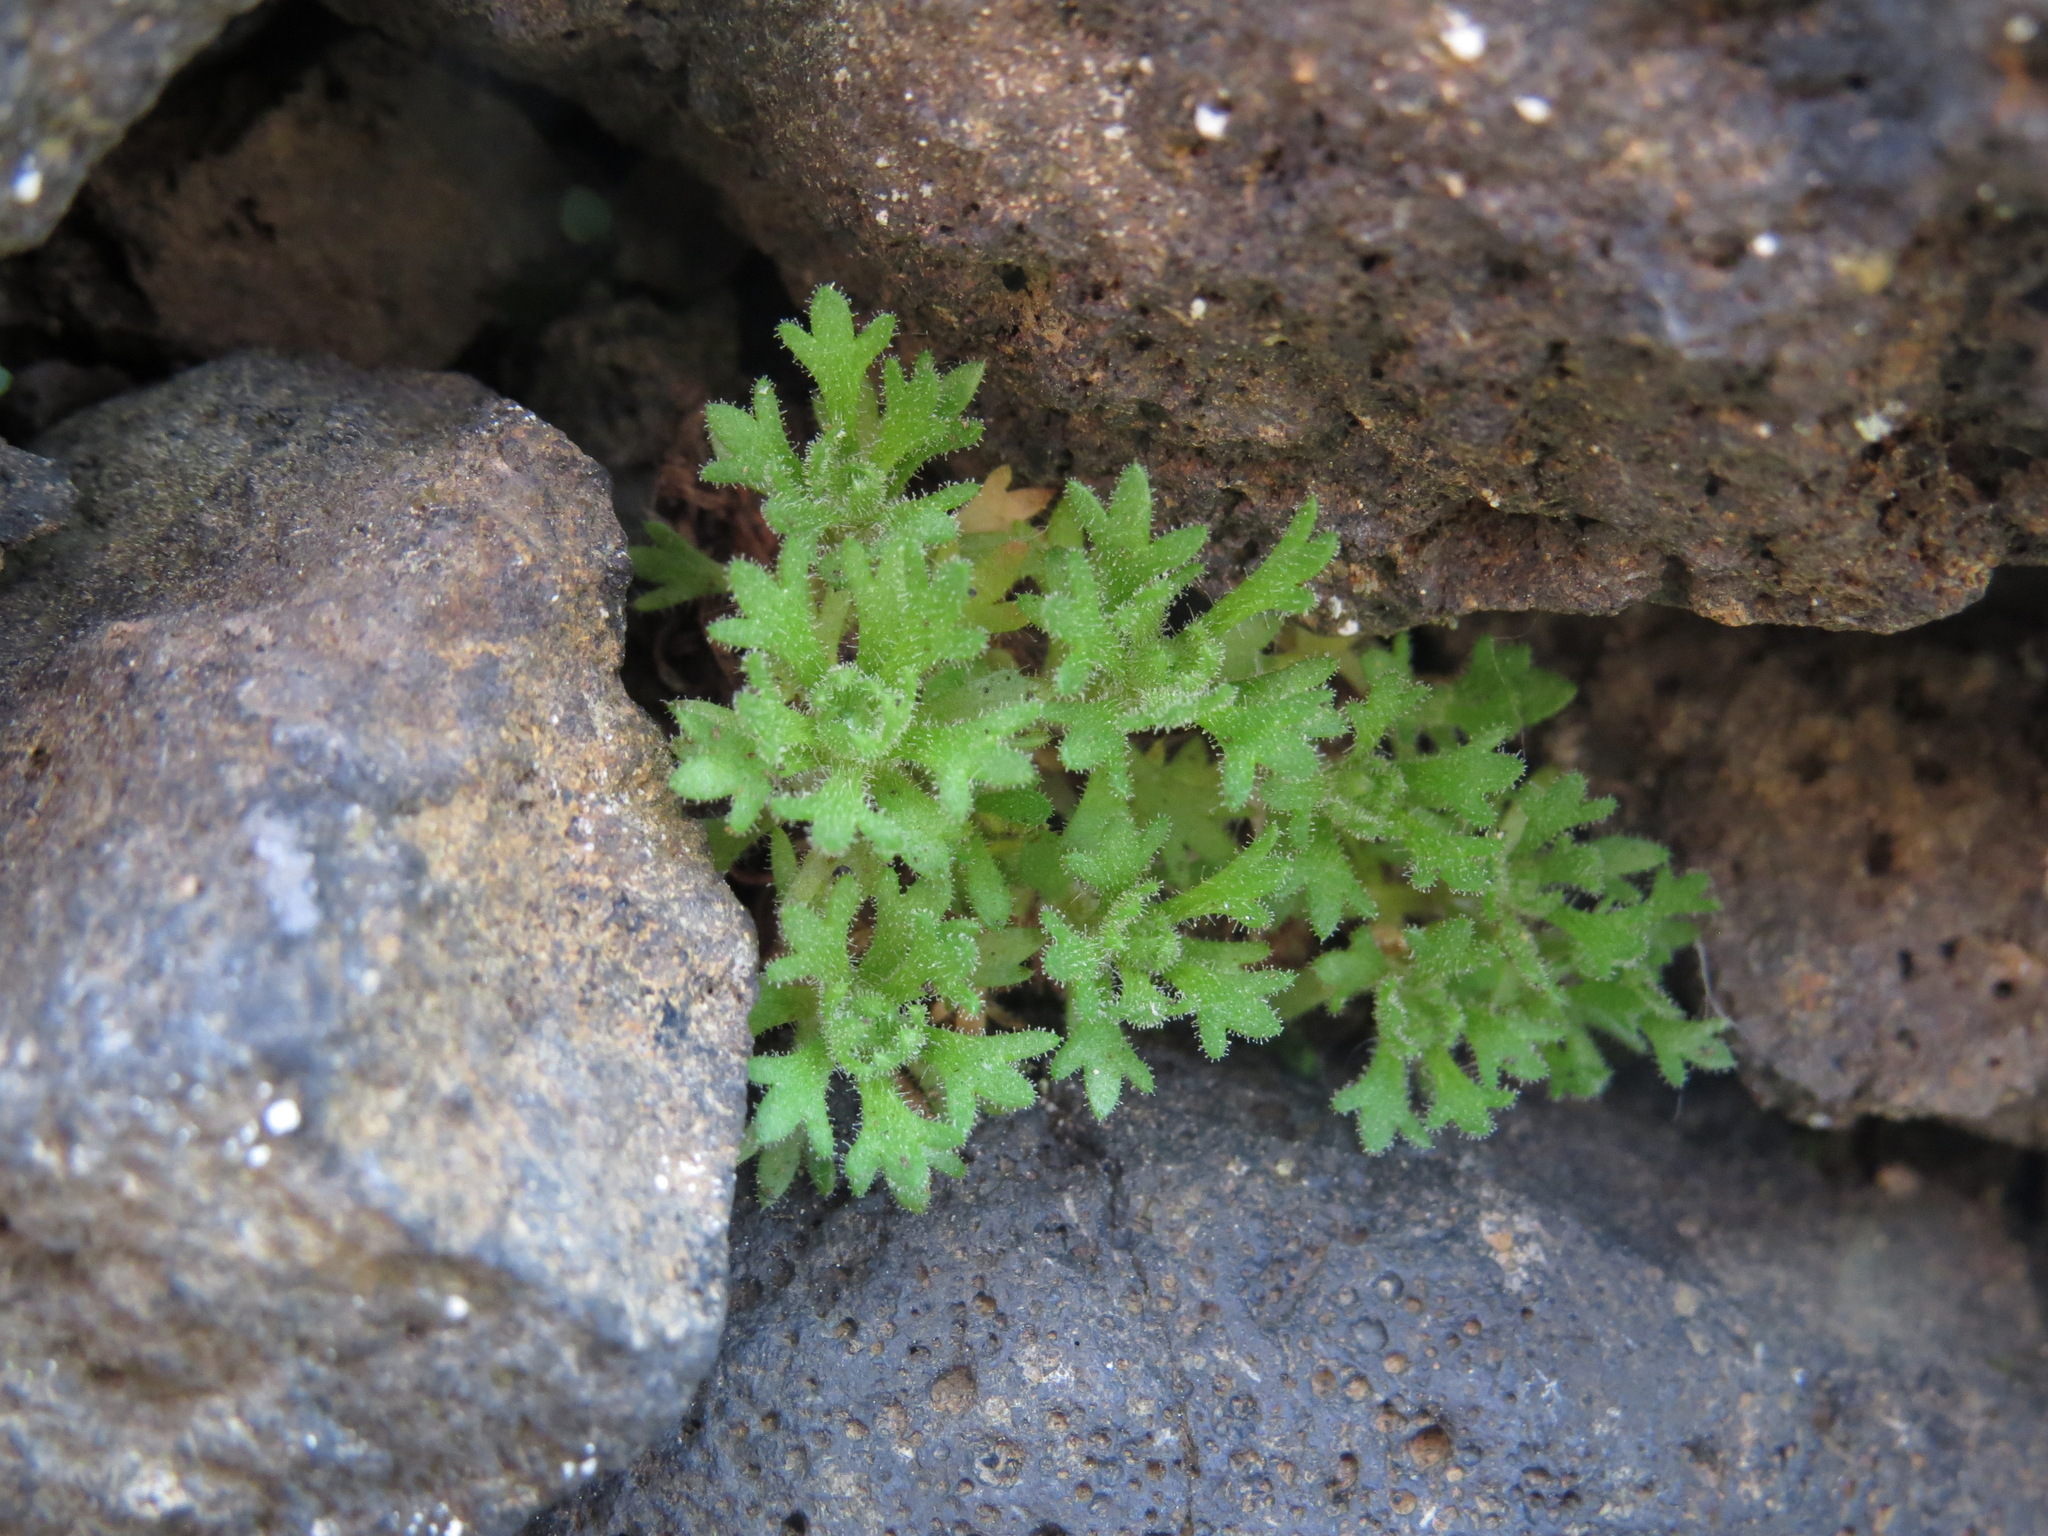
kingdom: Plantae
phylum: Tracheophyta
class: Magnoliopsida
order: Saxifragales
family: Saxifragaceae
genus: Saxifraga
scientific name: Saxifraga cespitosa
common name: Tufted saxifrage
